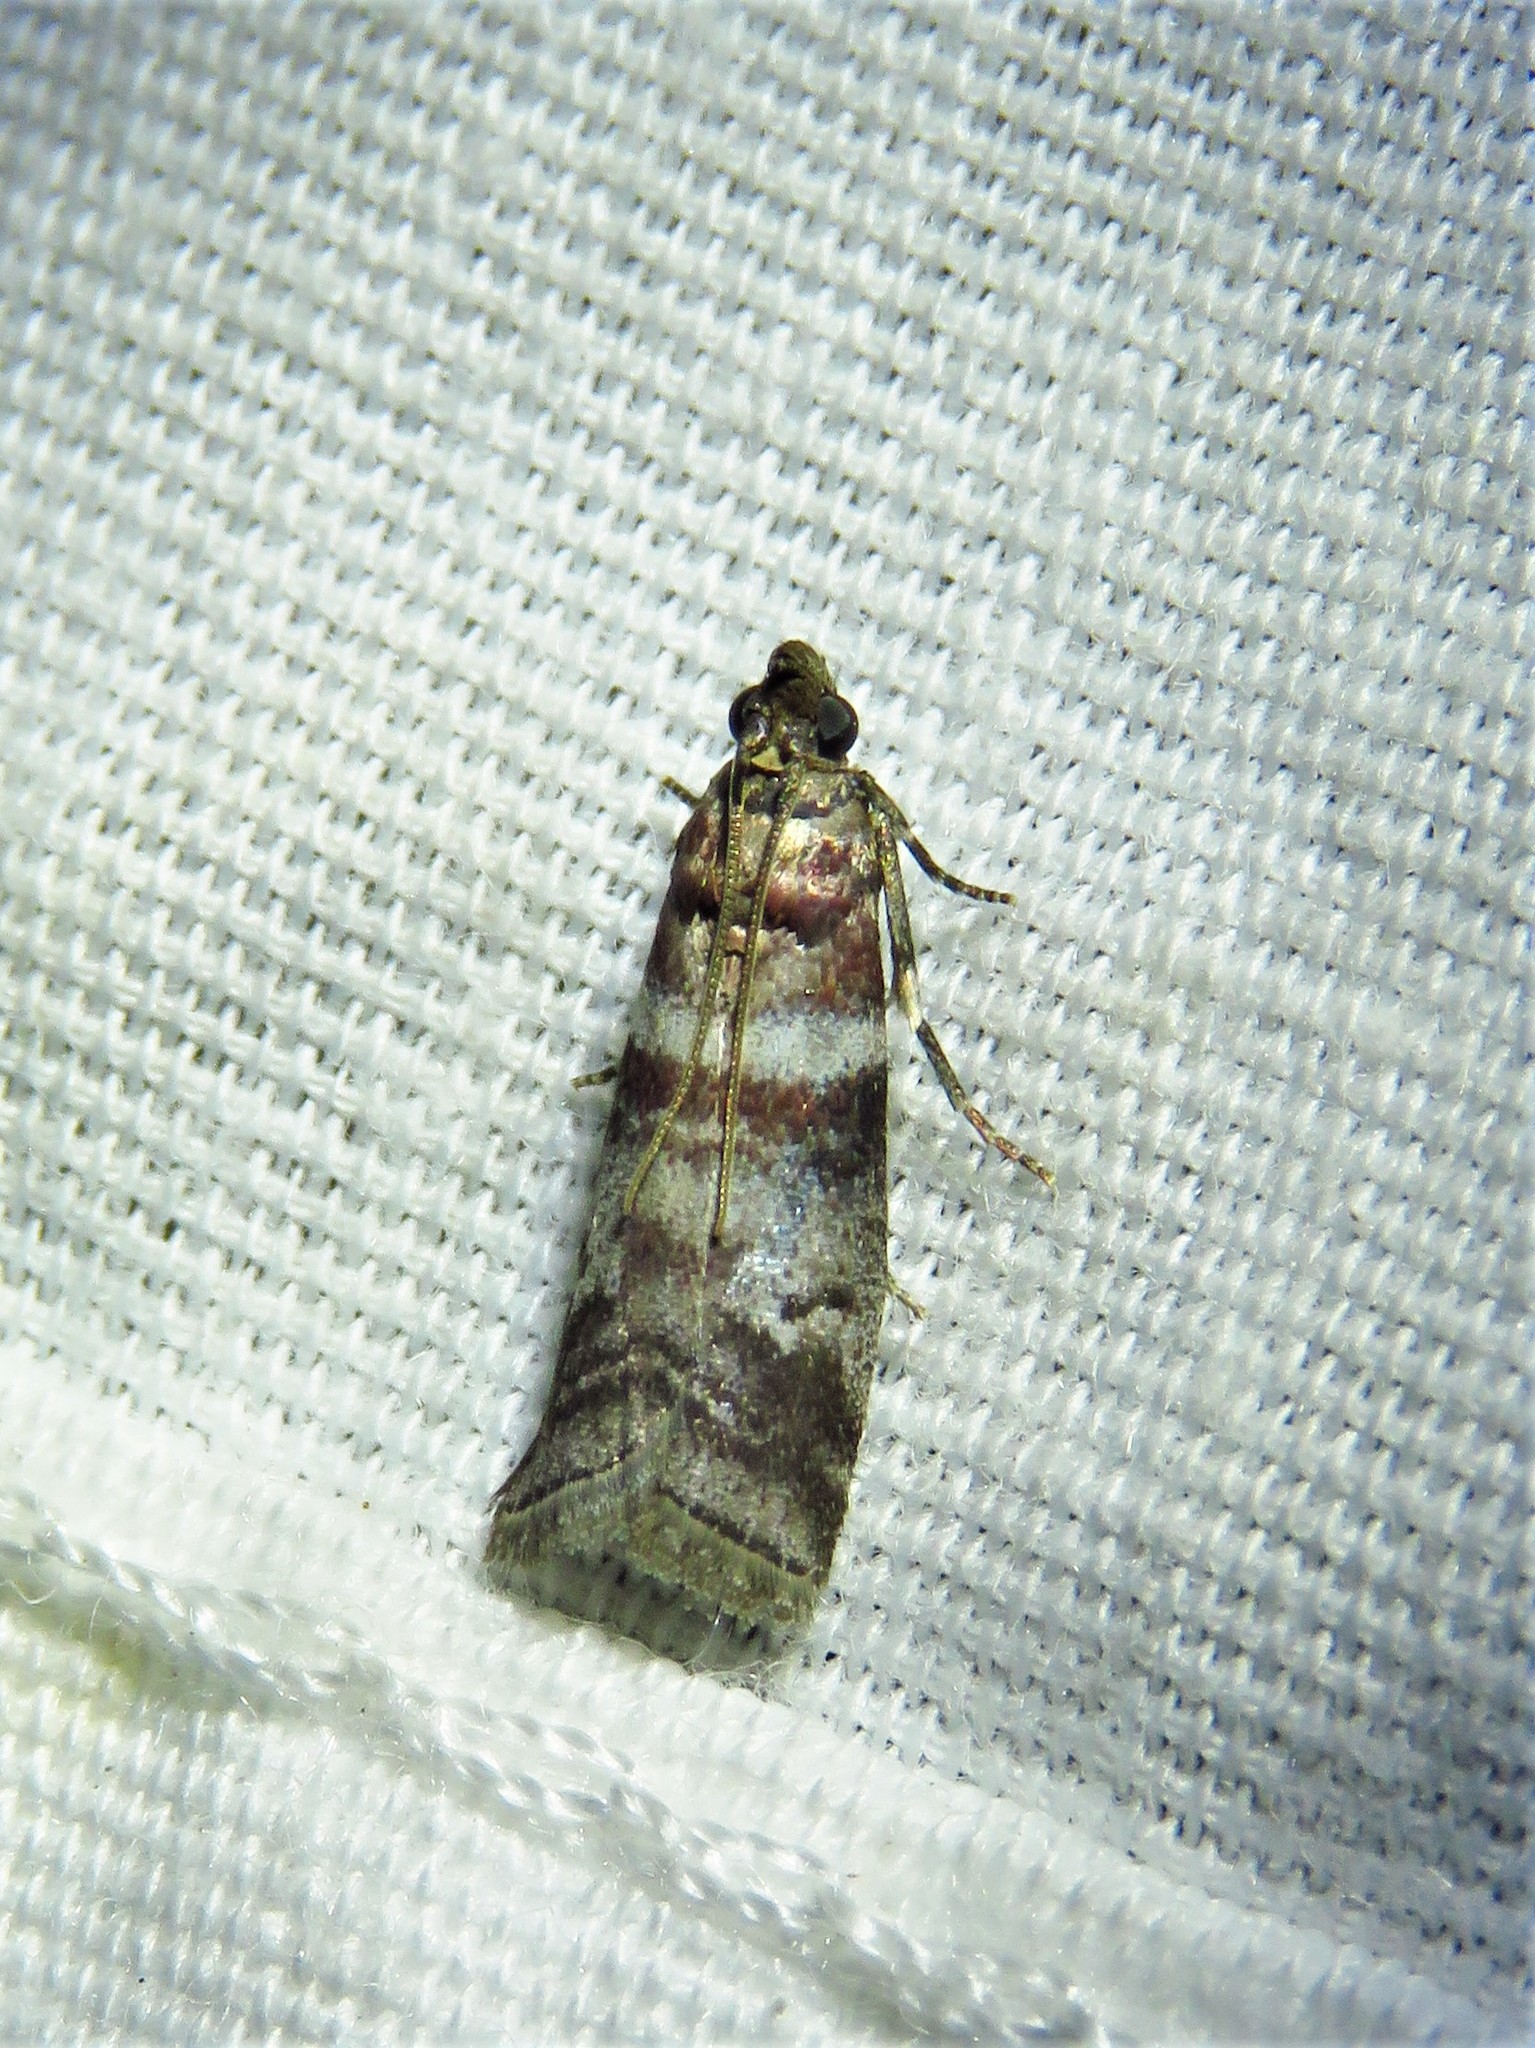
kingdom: Animalia
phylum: Arthropoda
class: Insecta
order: Lepidoptera
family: Pyralidae
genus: Sciota
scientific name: Sciota uvinella
